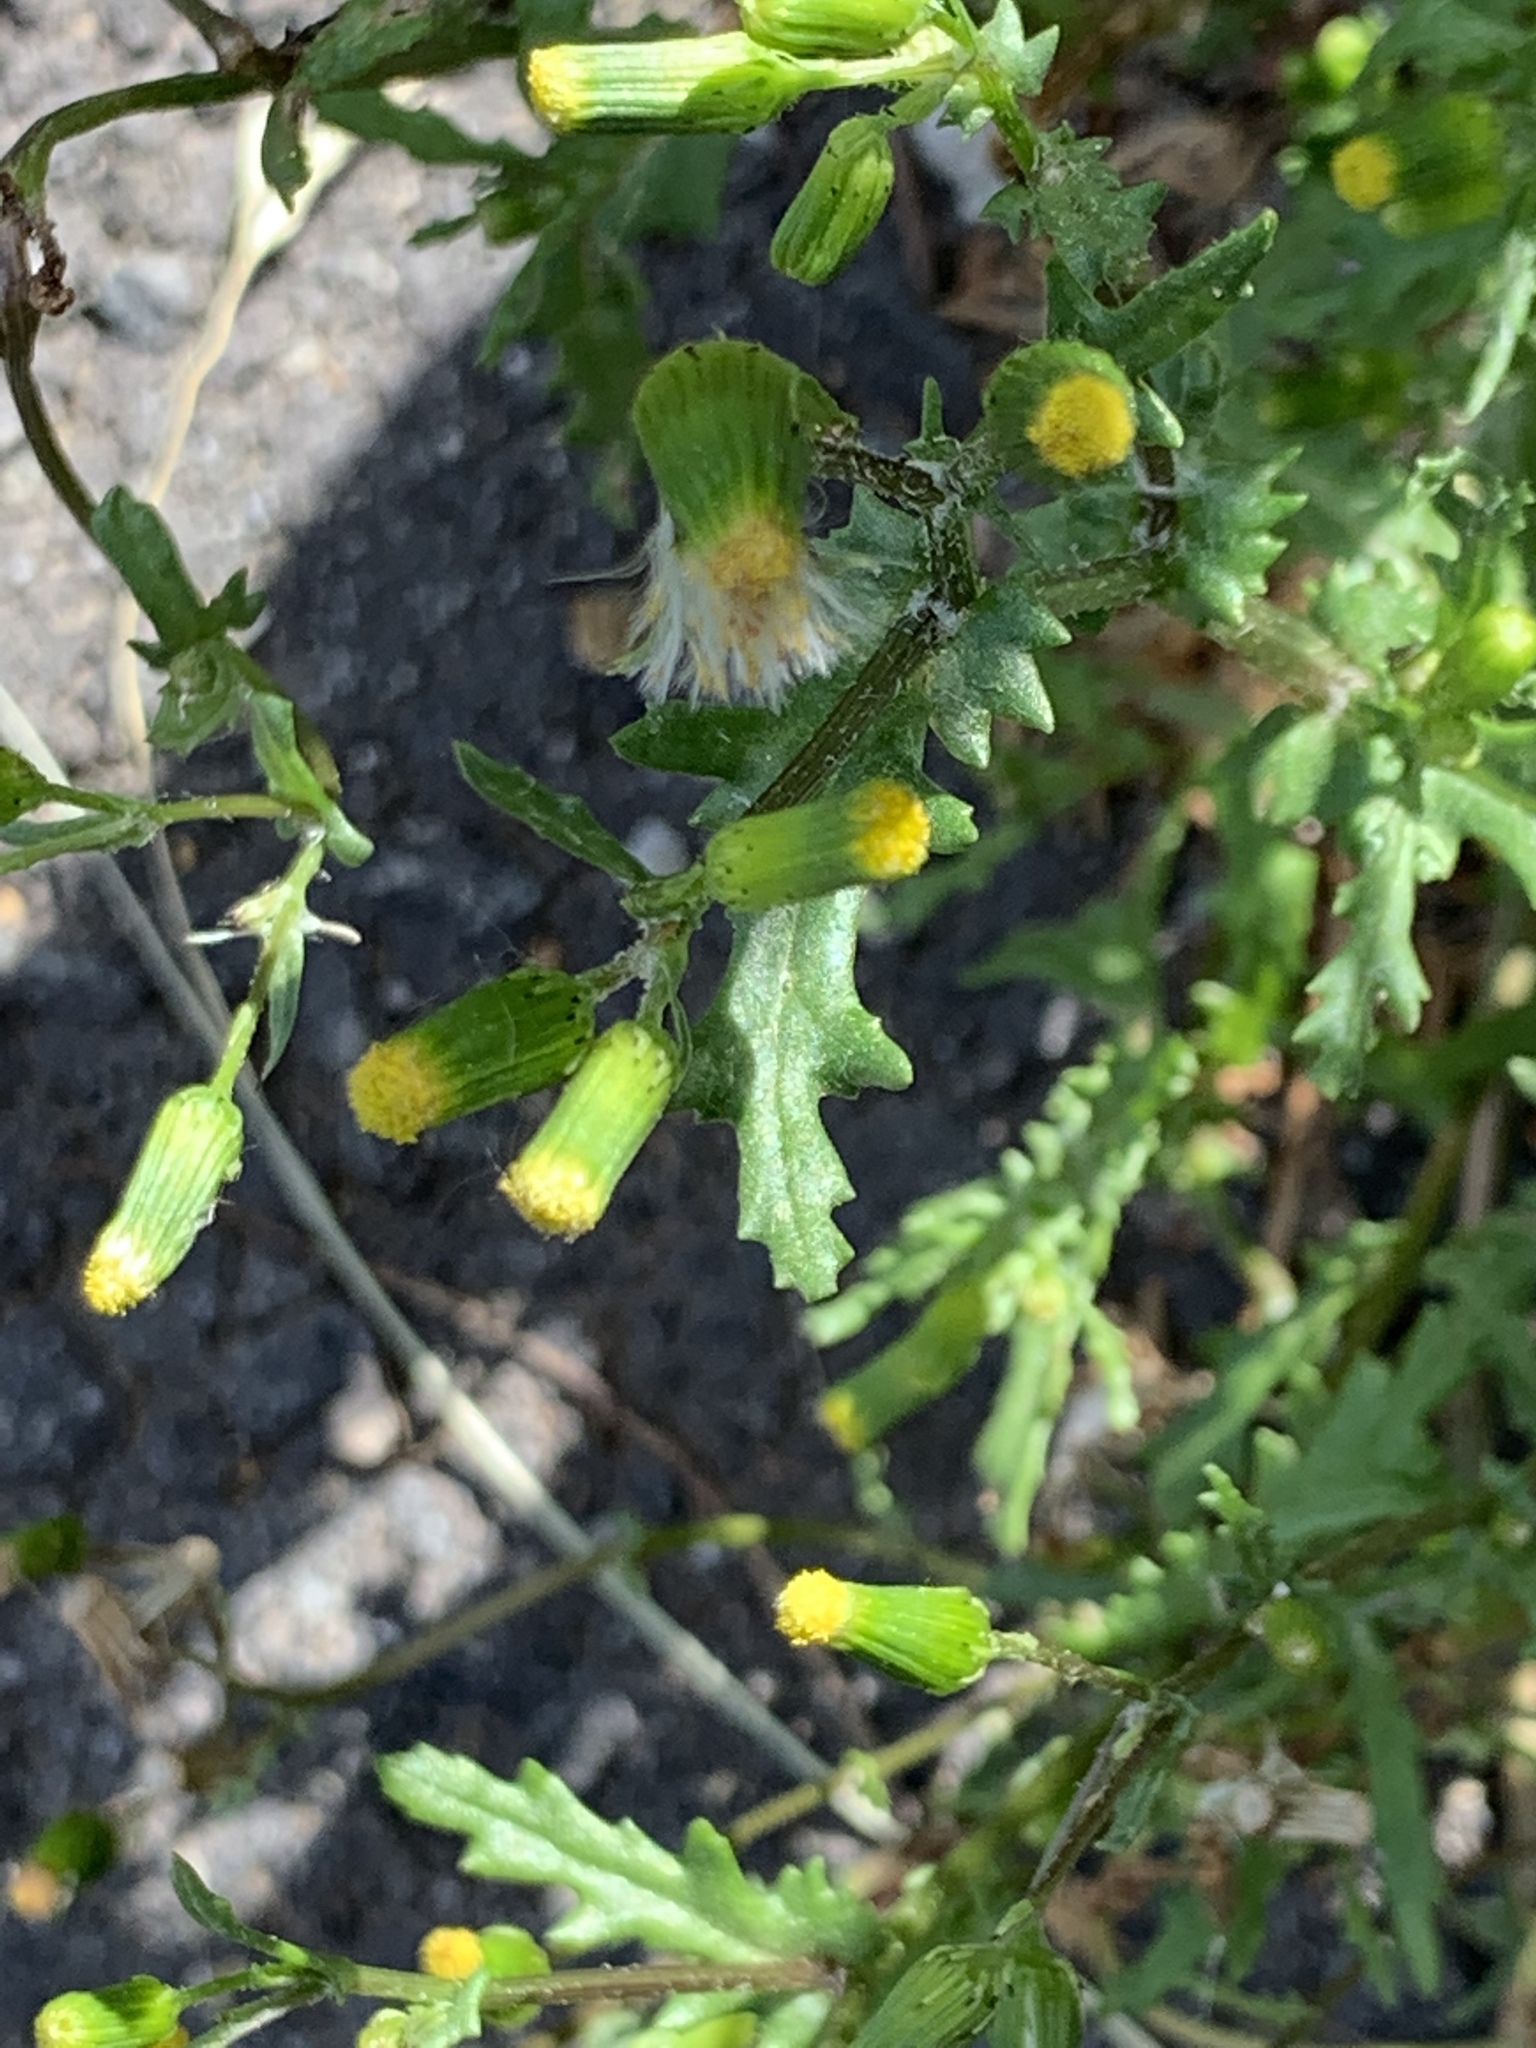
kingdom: Plantae
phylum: Tracheophyta
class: Magnoliopsida
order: Asterales
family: Asteraceae
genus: Senecio
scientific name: Senecio vulgaris
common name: Old-man-in-the-spring
